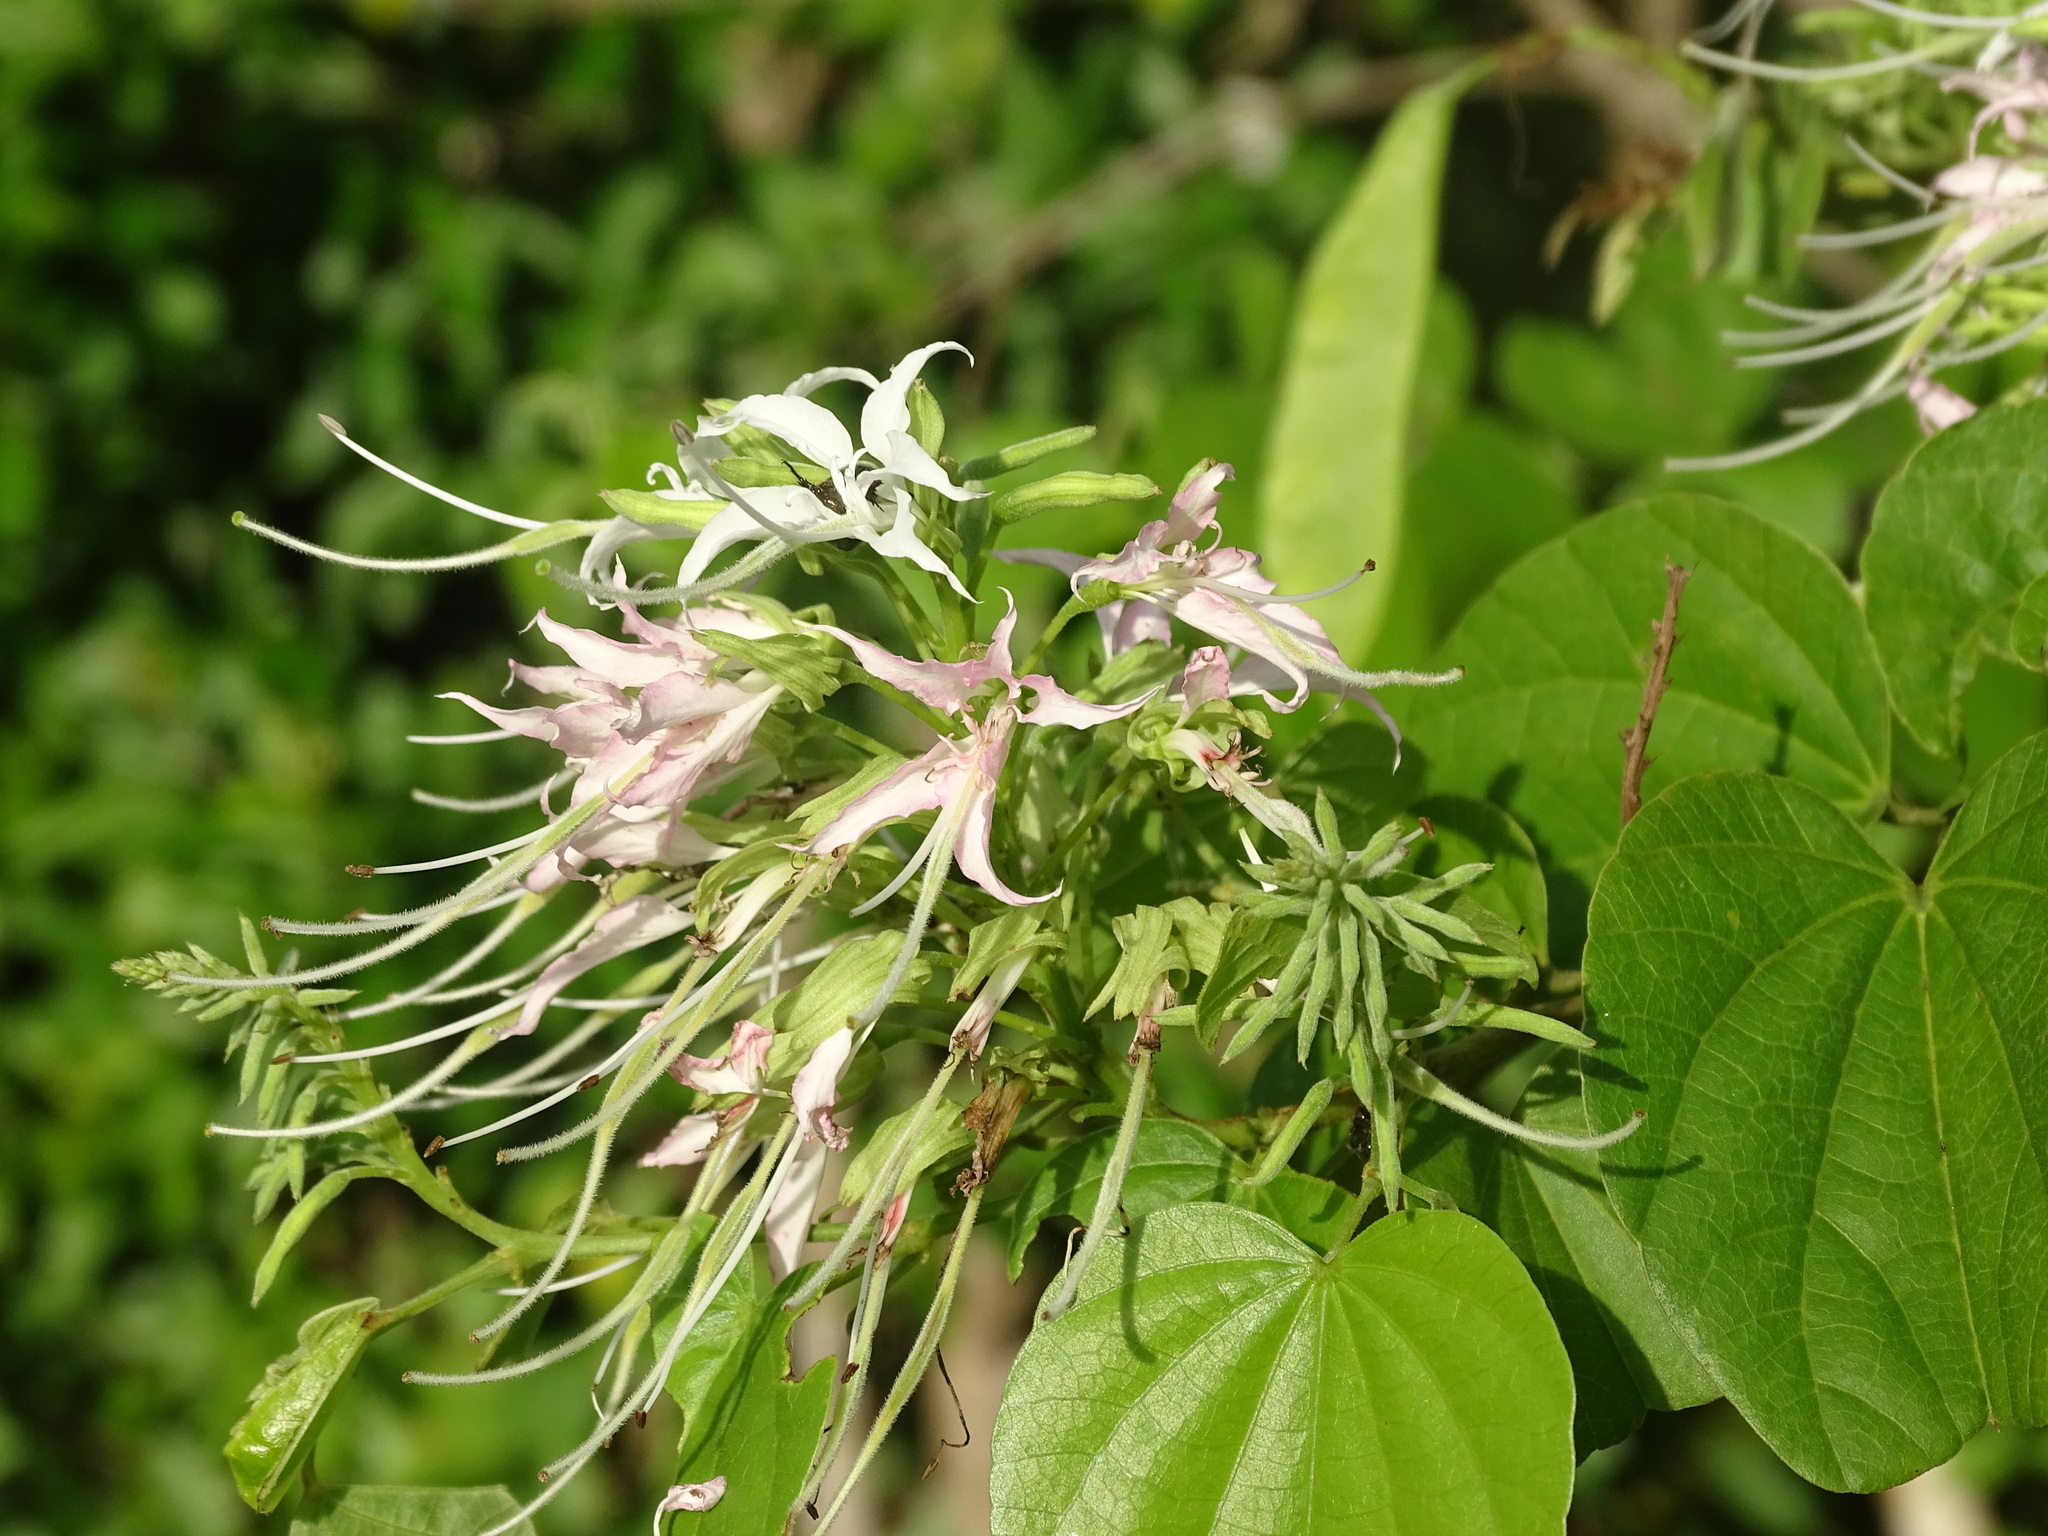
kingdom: Plantae
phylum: Tracheophyta
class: Magnoliopsida
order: Fabales
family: Fabaceae
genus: Bauhinia
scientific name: Bauhinia divaricata
